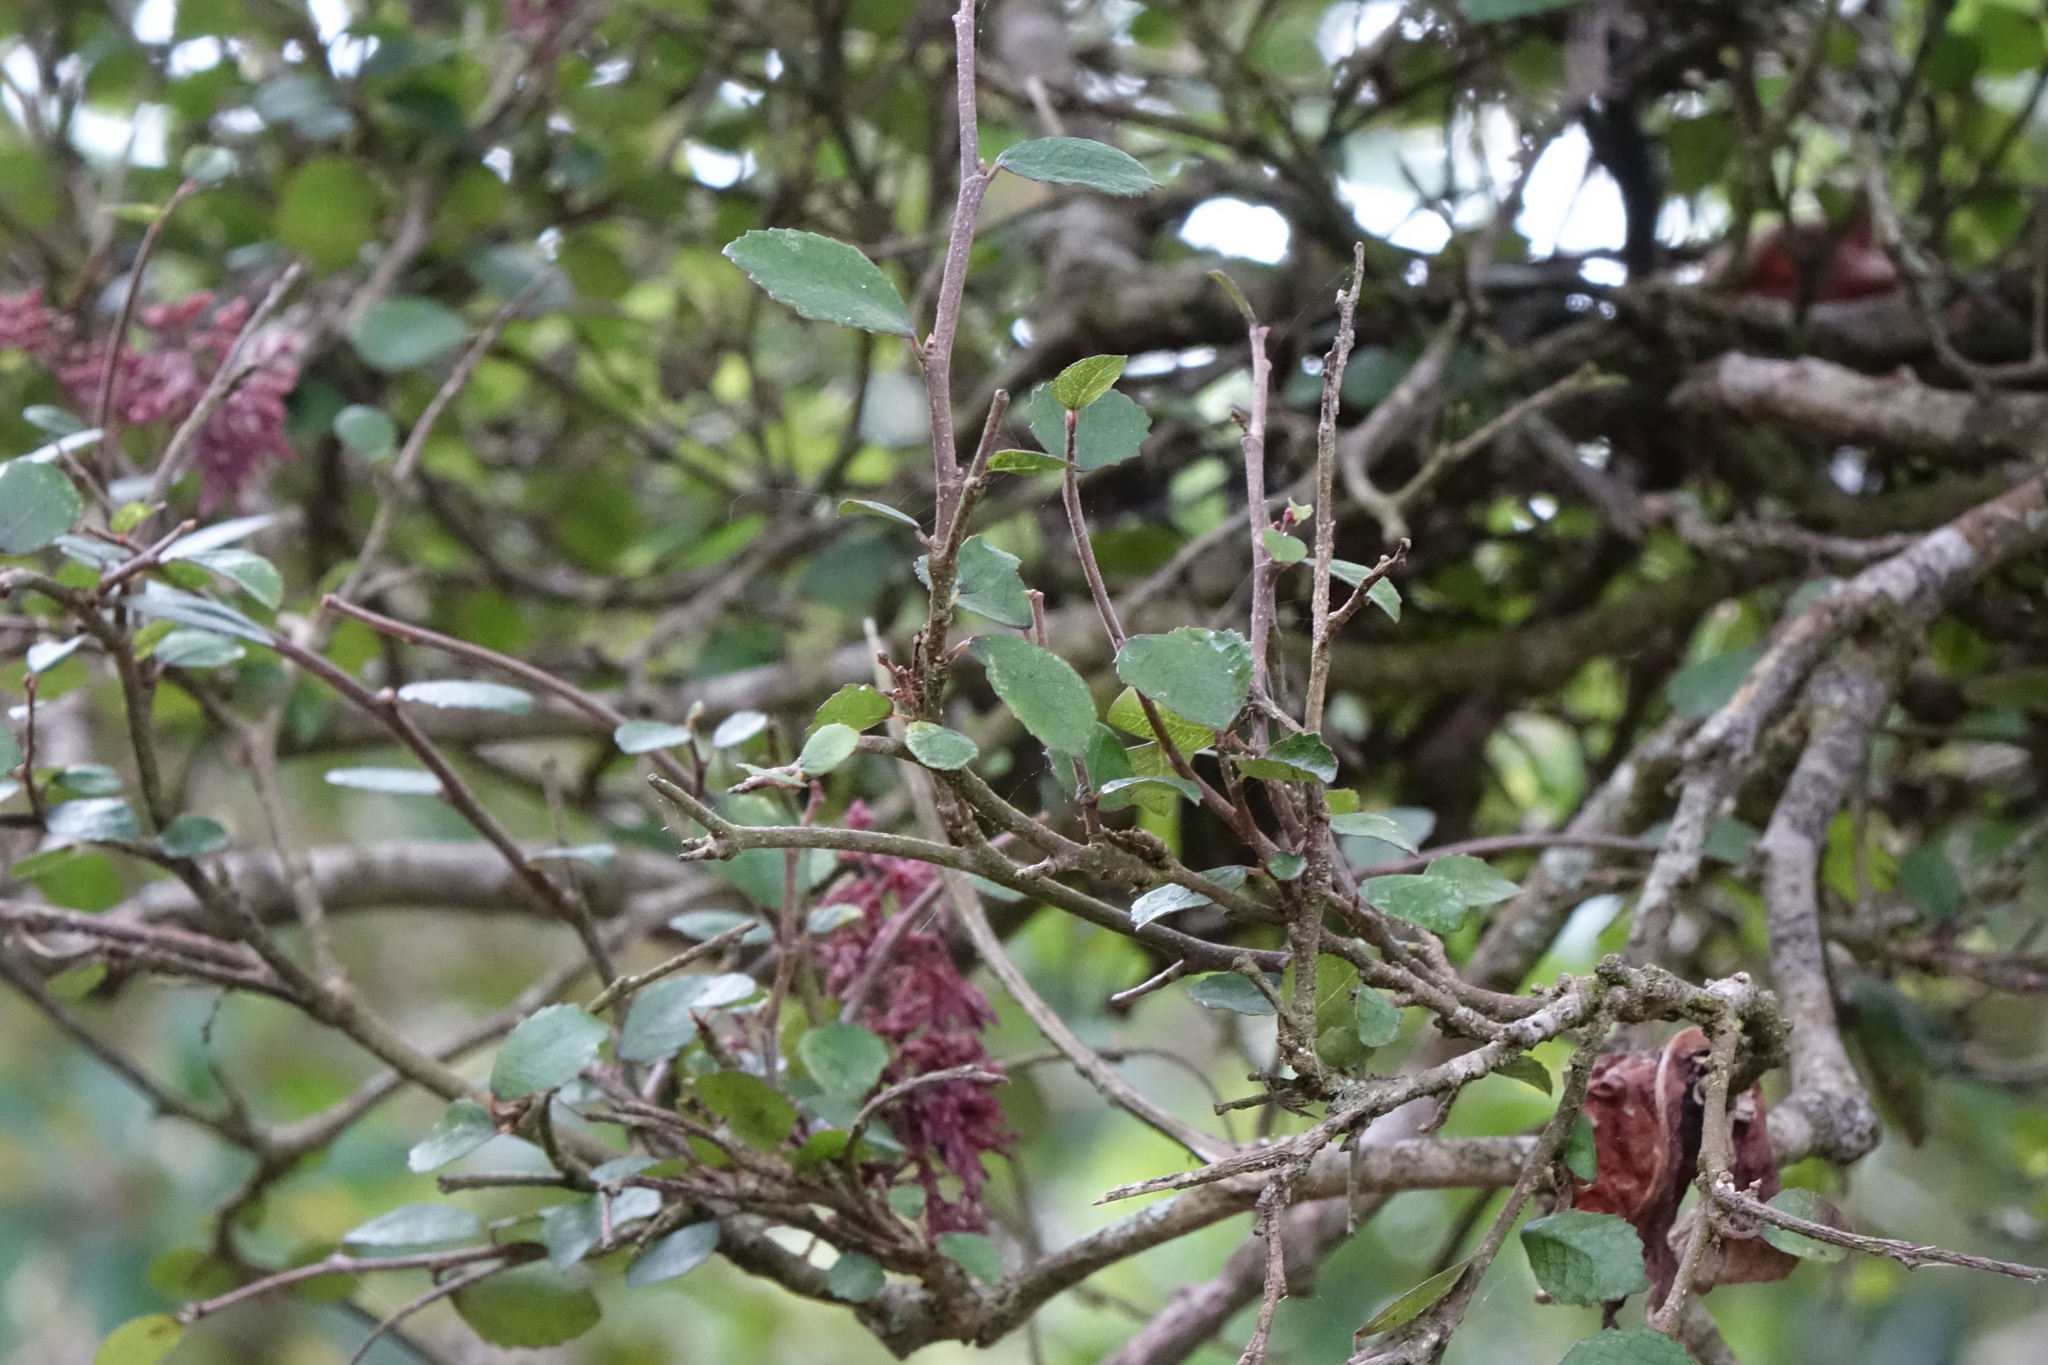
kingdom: Plantae
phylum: Tracheophyta
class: Magnoliopsida
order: Rosales
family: Moraceae
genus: Paratrophis
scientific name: Paratrophis microphylla
